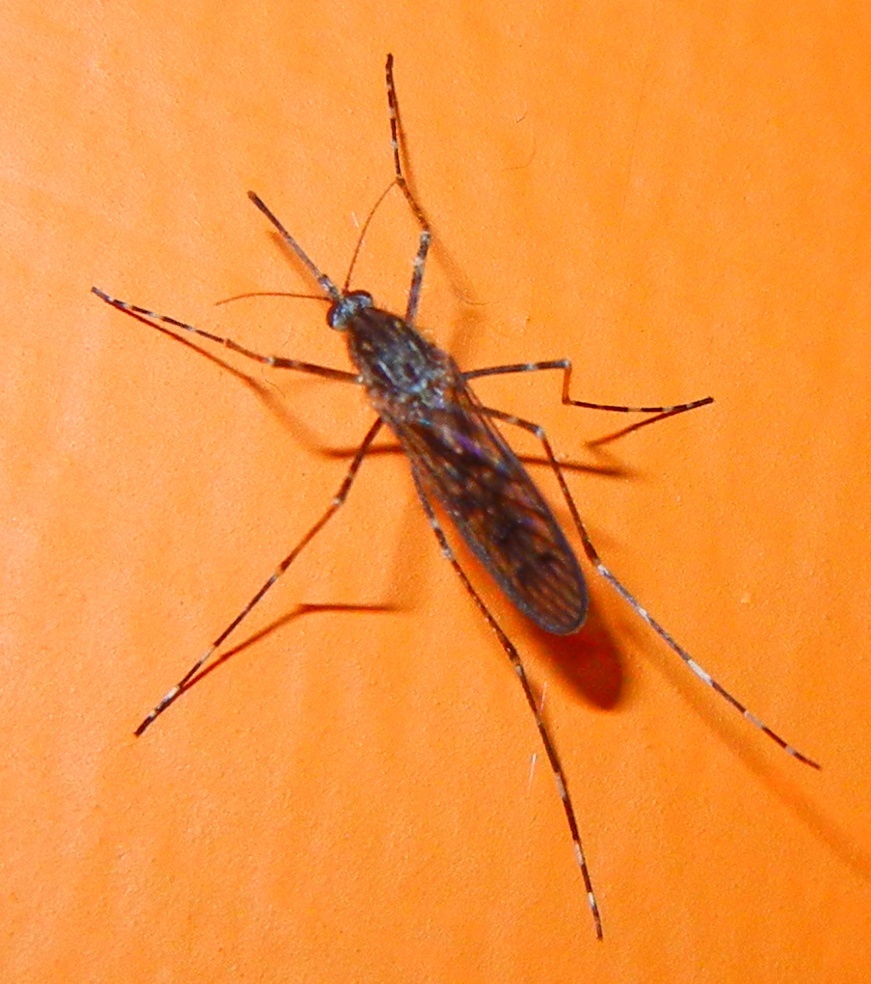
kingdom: Animalia
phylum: Arthropoda
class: Insecta
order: Diptera
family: Culicidae
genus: Culiseta
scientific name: Culiseta annulata
